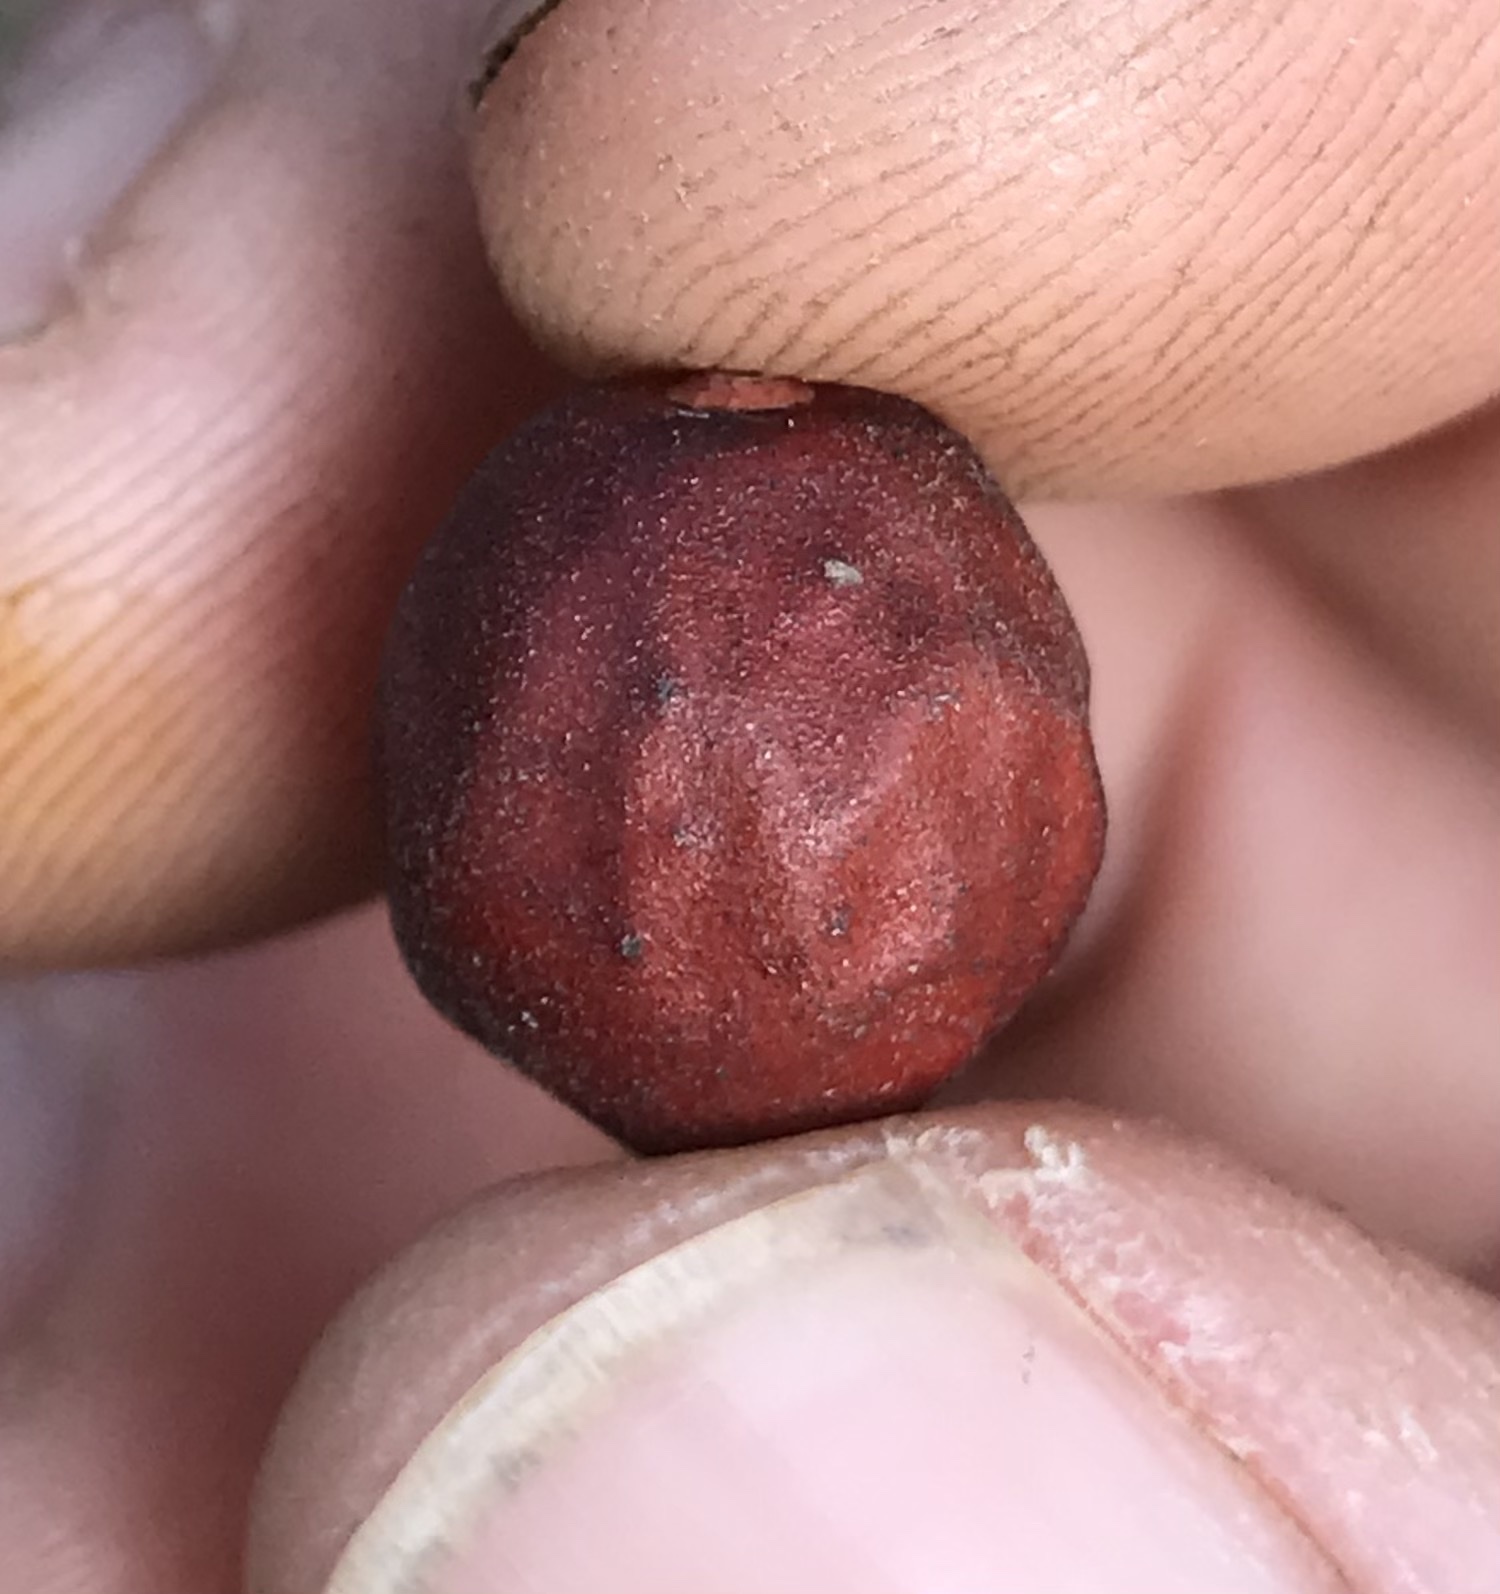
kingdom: Plantae
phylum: Tracheophyta
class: Magnoliopsida
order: Ericales
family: Ericaceae
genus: Arctostaphylos
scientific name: Arctostaphylos glauca
